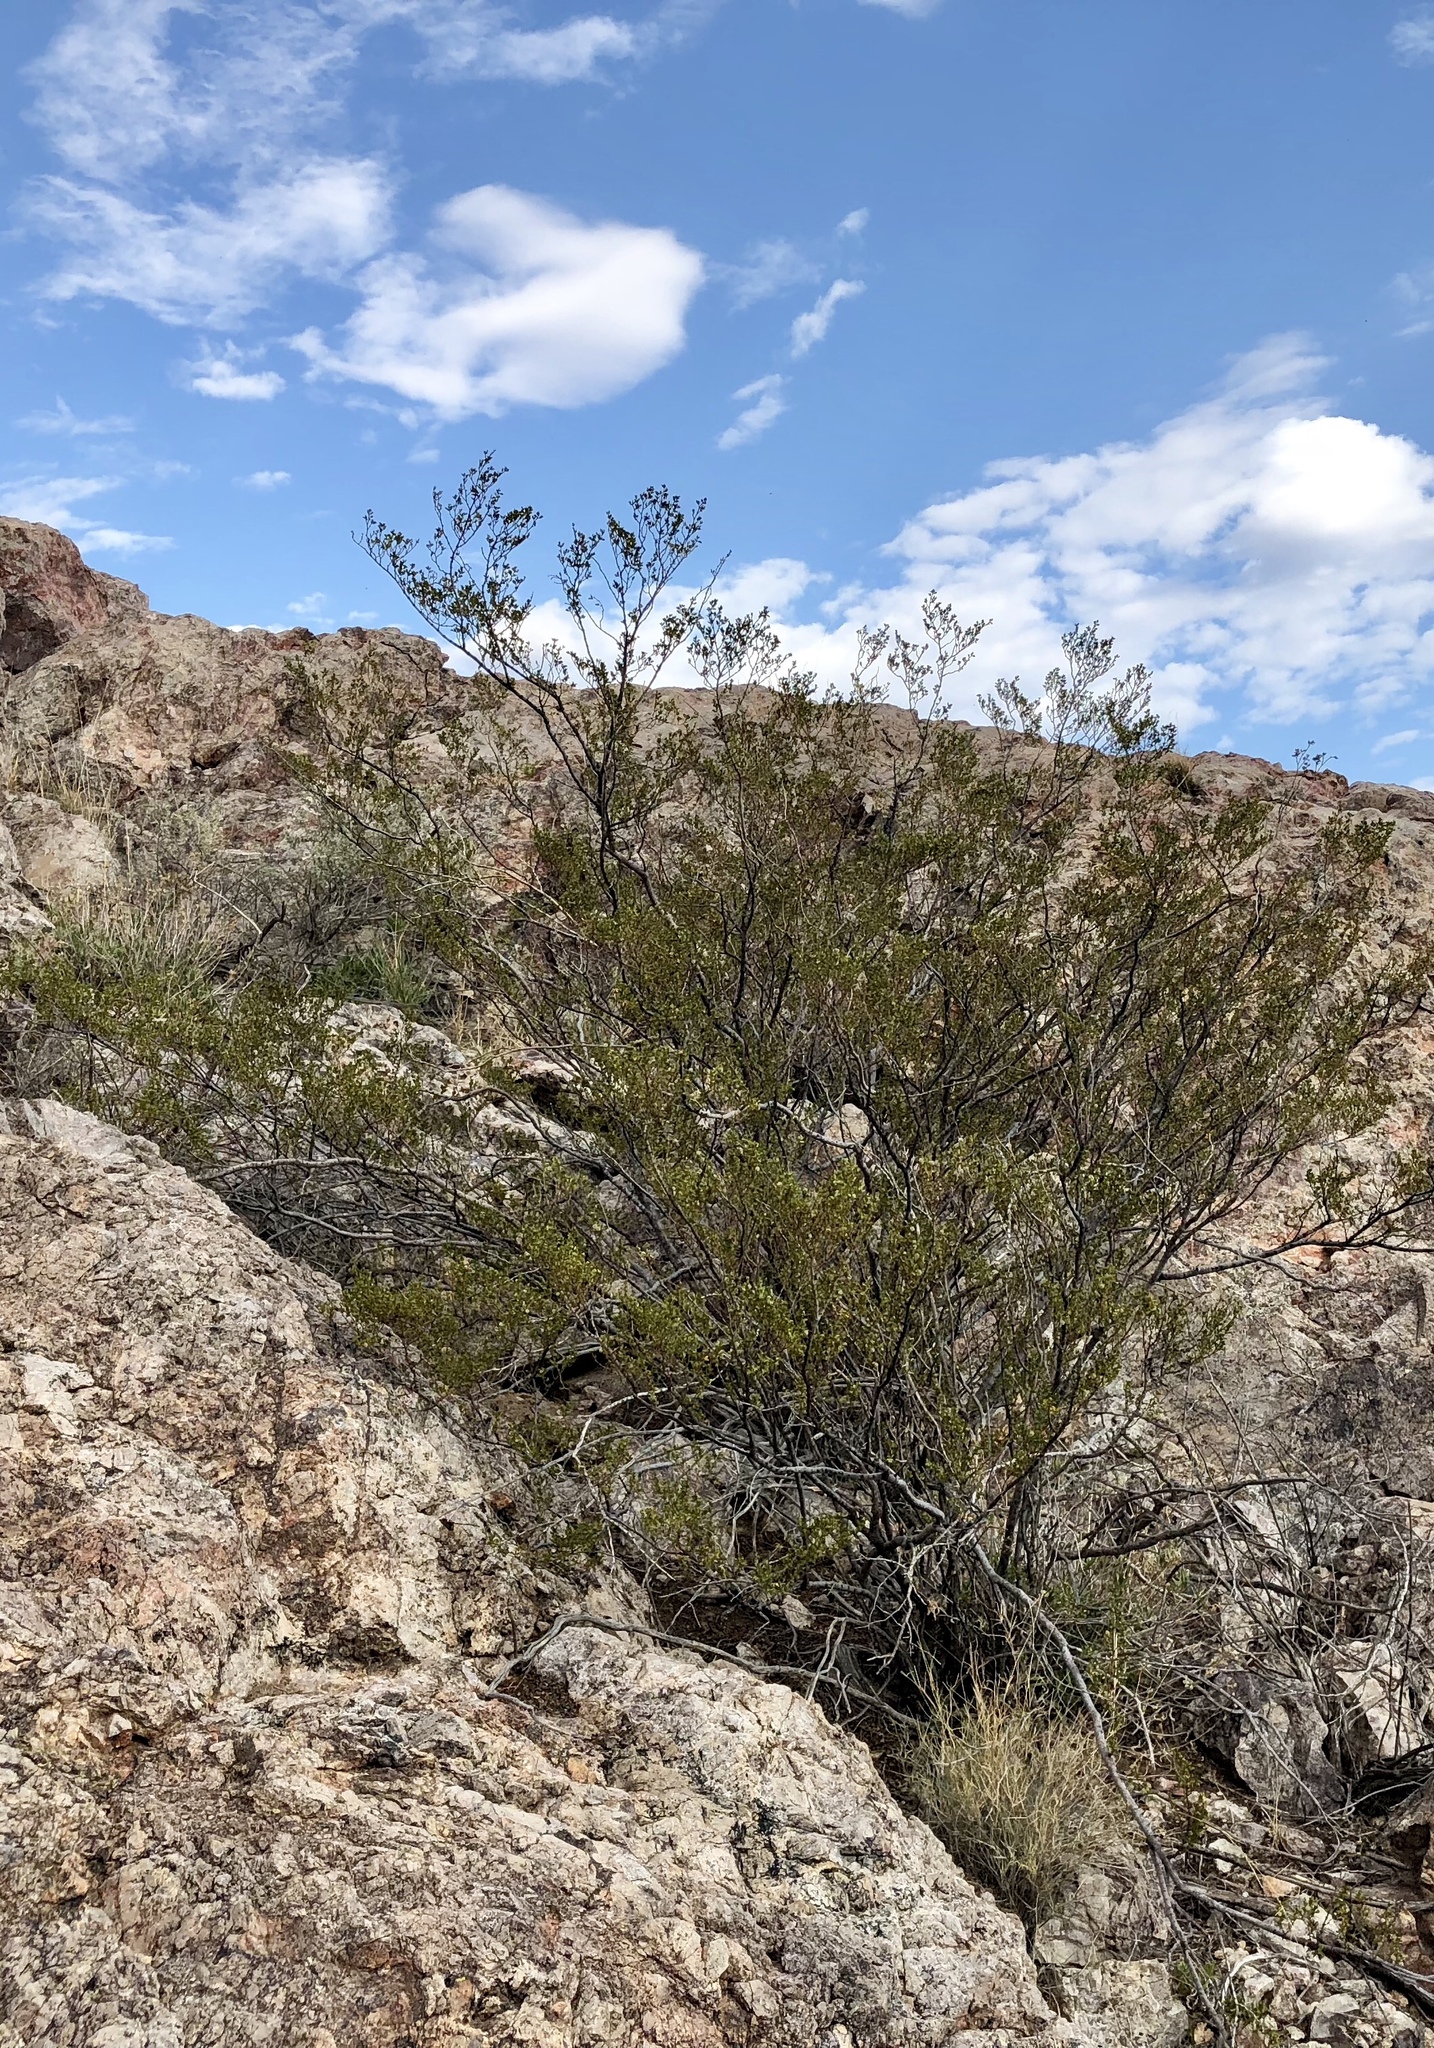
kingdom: Plantae
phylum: Tracheophyta
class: Magnoliopsida
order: Zygophyllales
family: Zygophyllaceae
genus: Larrea
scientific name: Larrea tridentata
